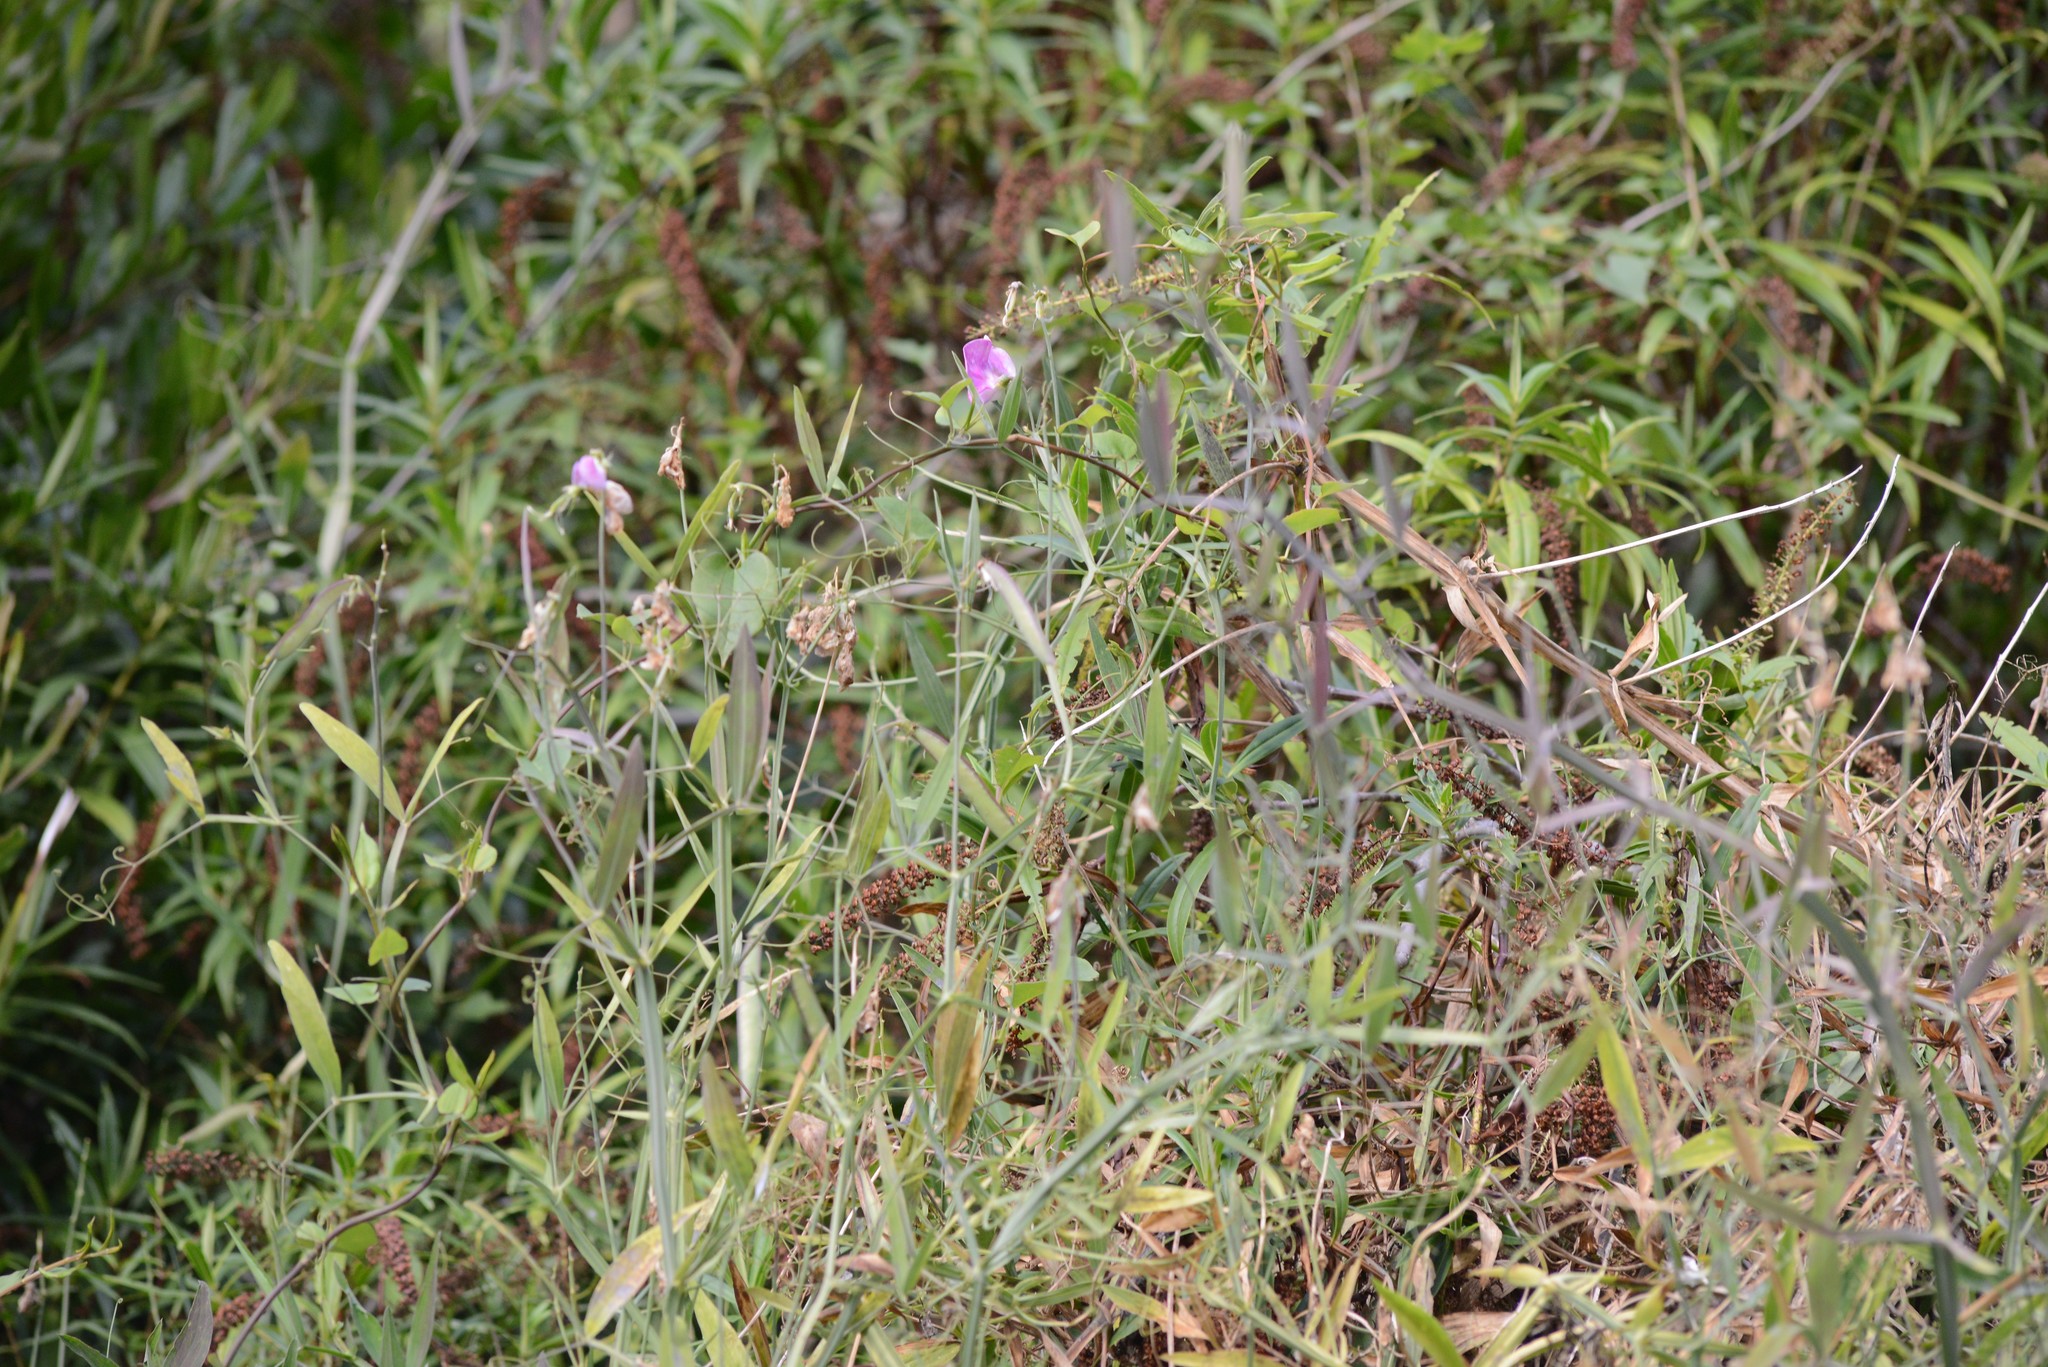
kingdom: Plantae
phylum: Tracheophyta
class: Magnoliopsida
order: Fabales
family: Fabaceae
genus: Lathyrus
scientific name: Lathyrus latifolius
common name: Perennial pea
